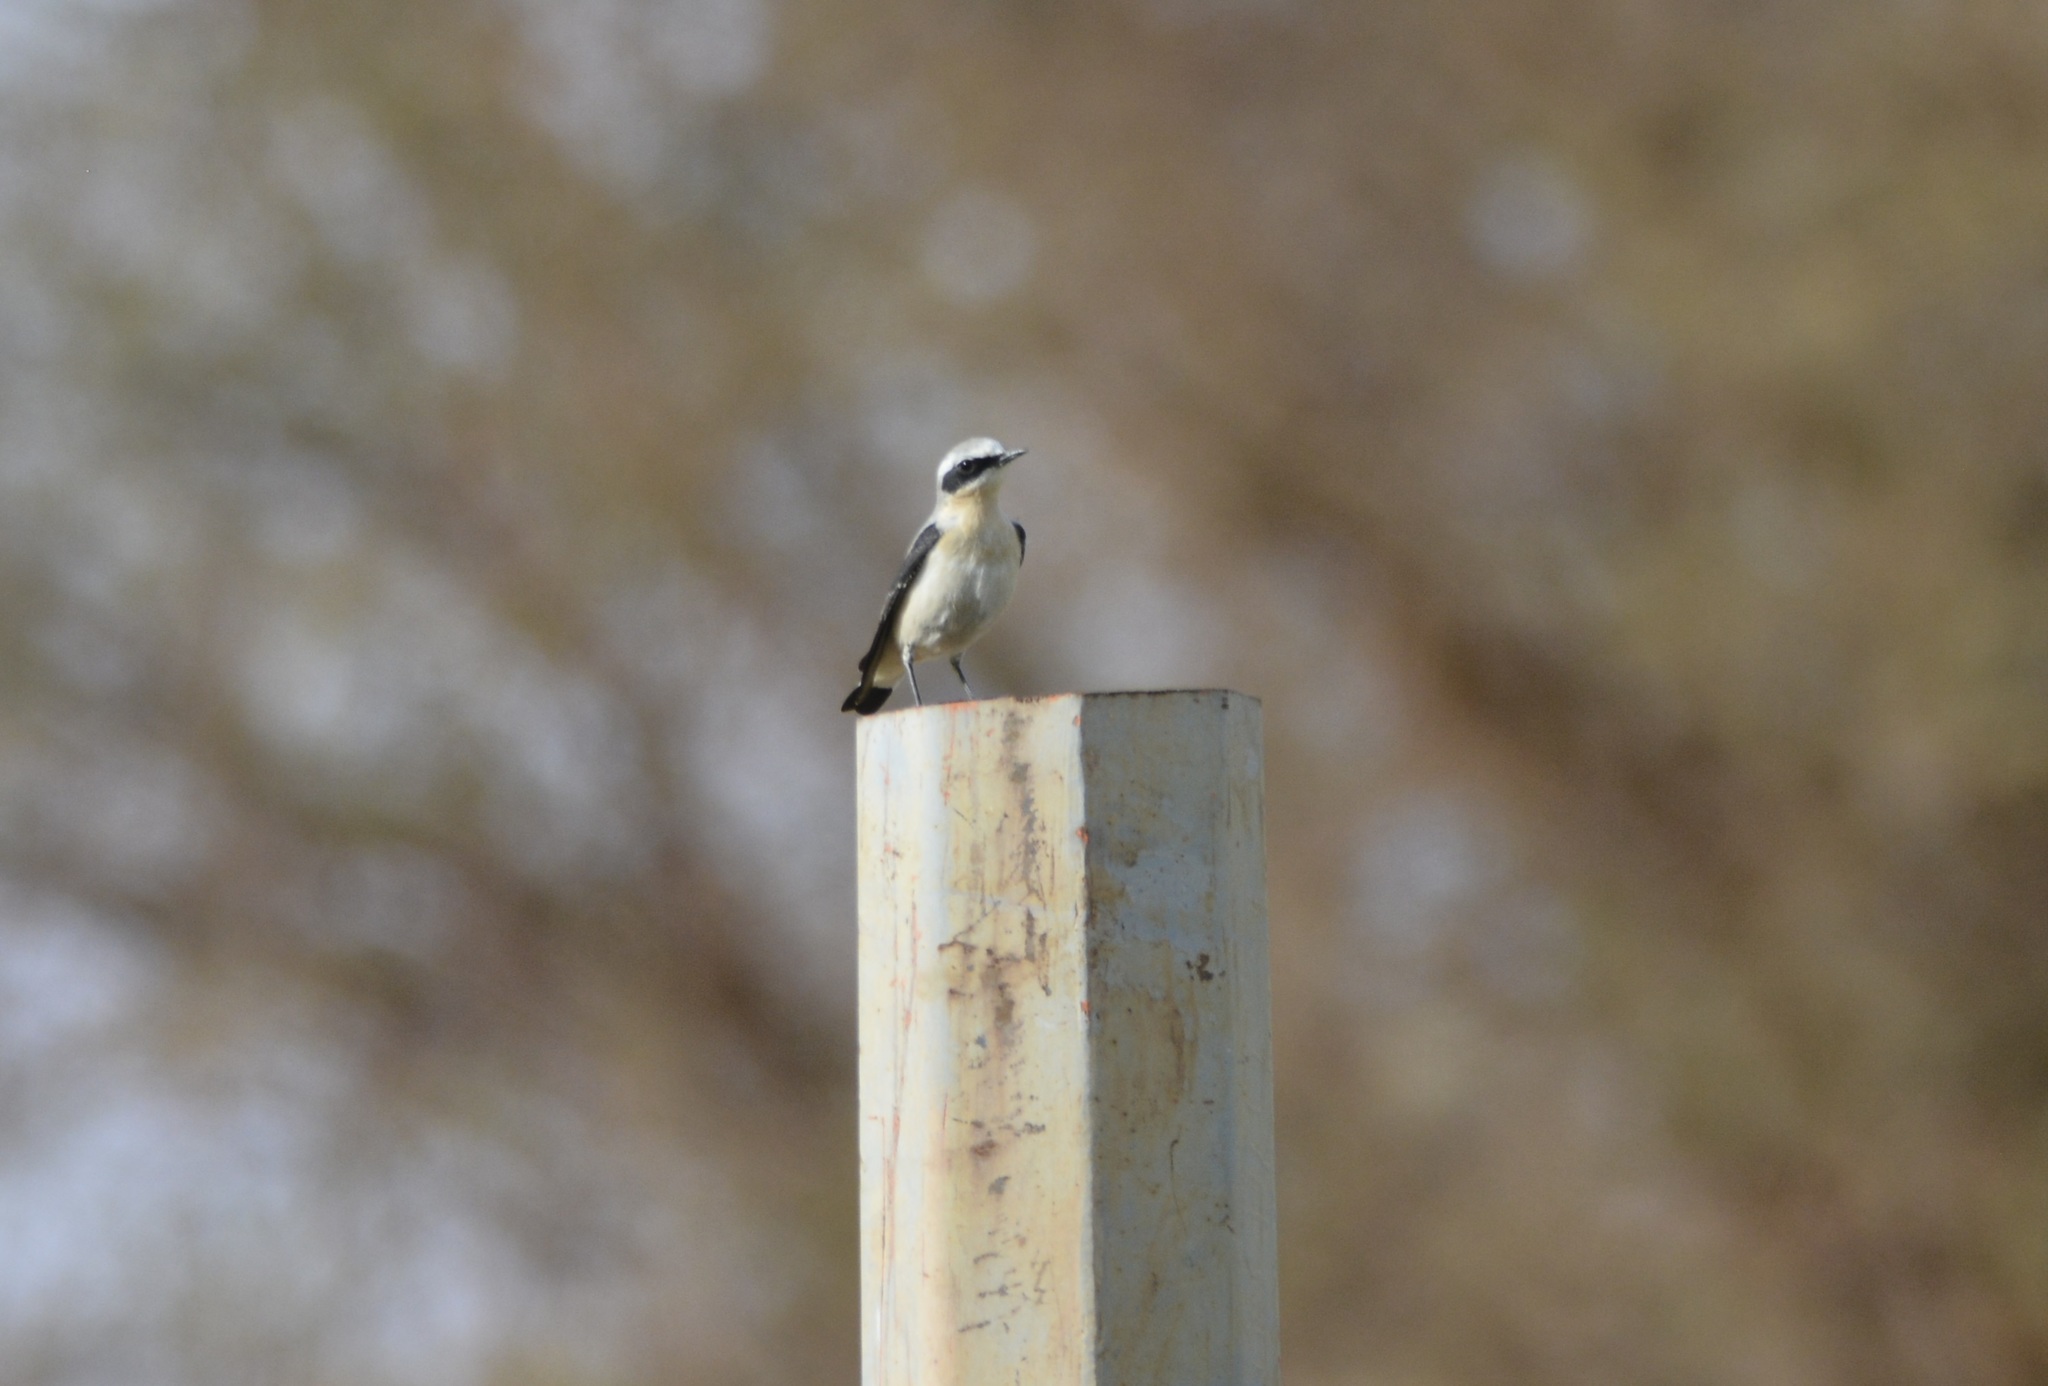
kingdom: Animalia
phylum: Chordata
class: Aves
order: Passeriformes
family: Muscicapidae
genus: Oenanthe
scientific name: Oenanthe oenanthe
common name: Northern wheatear
